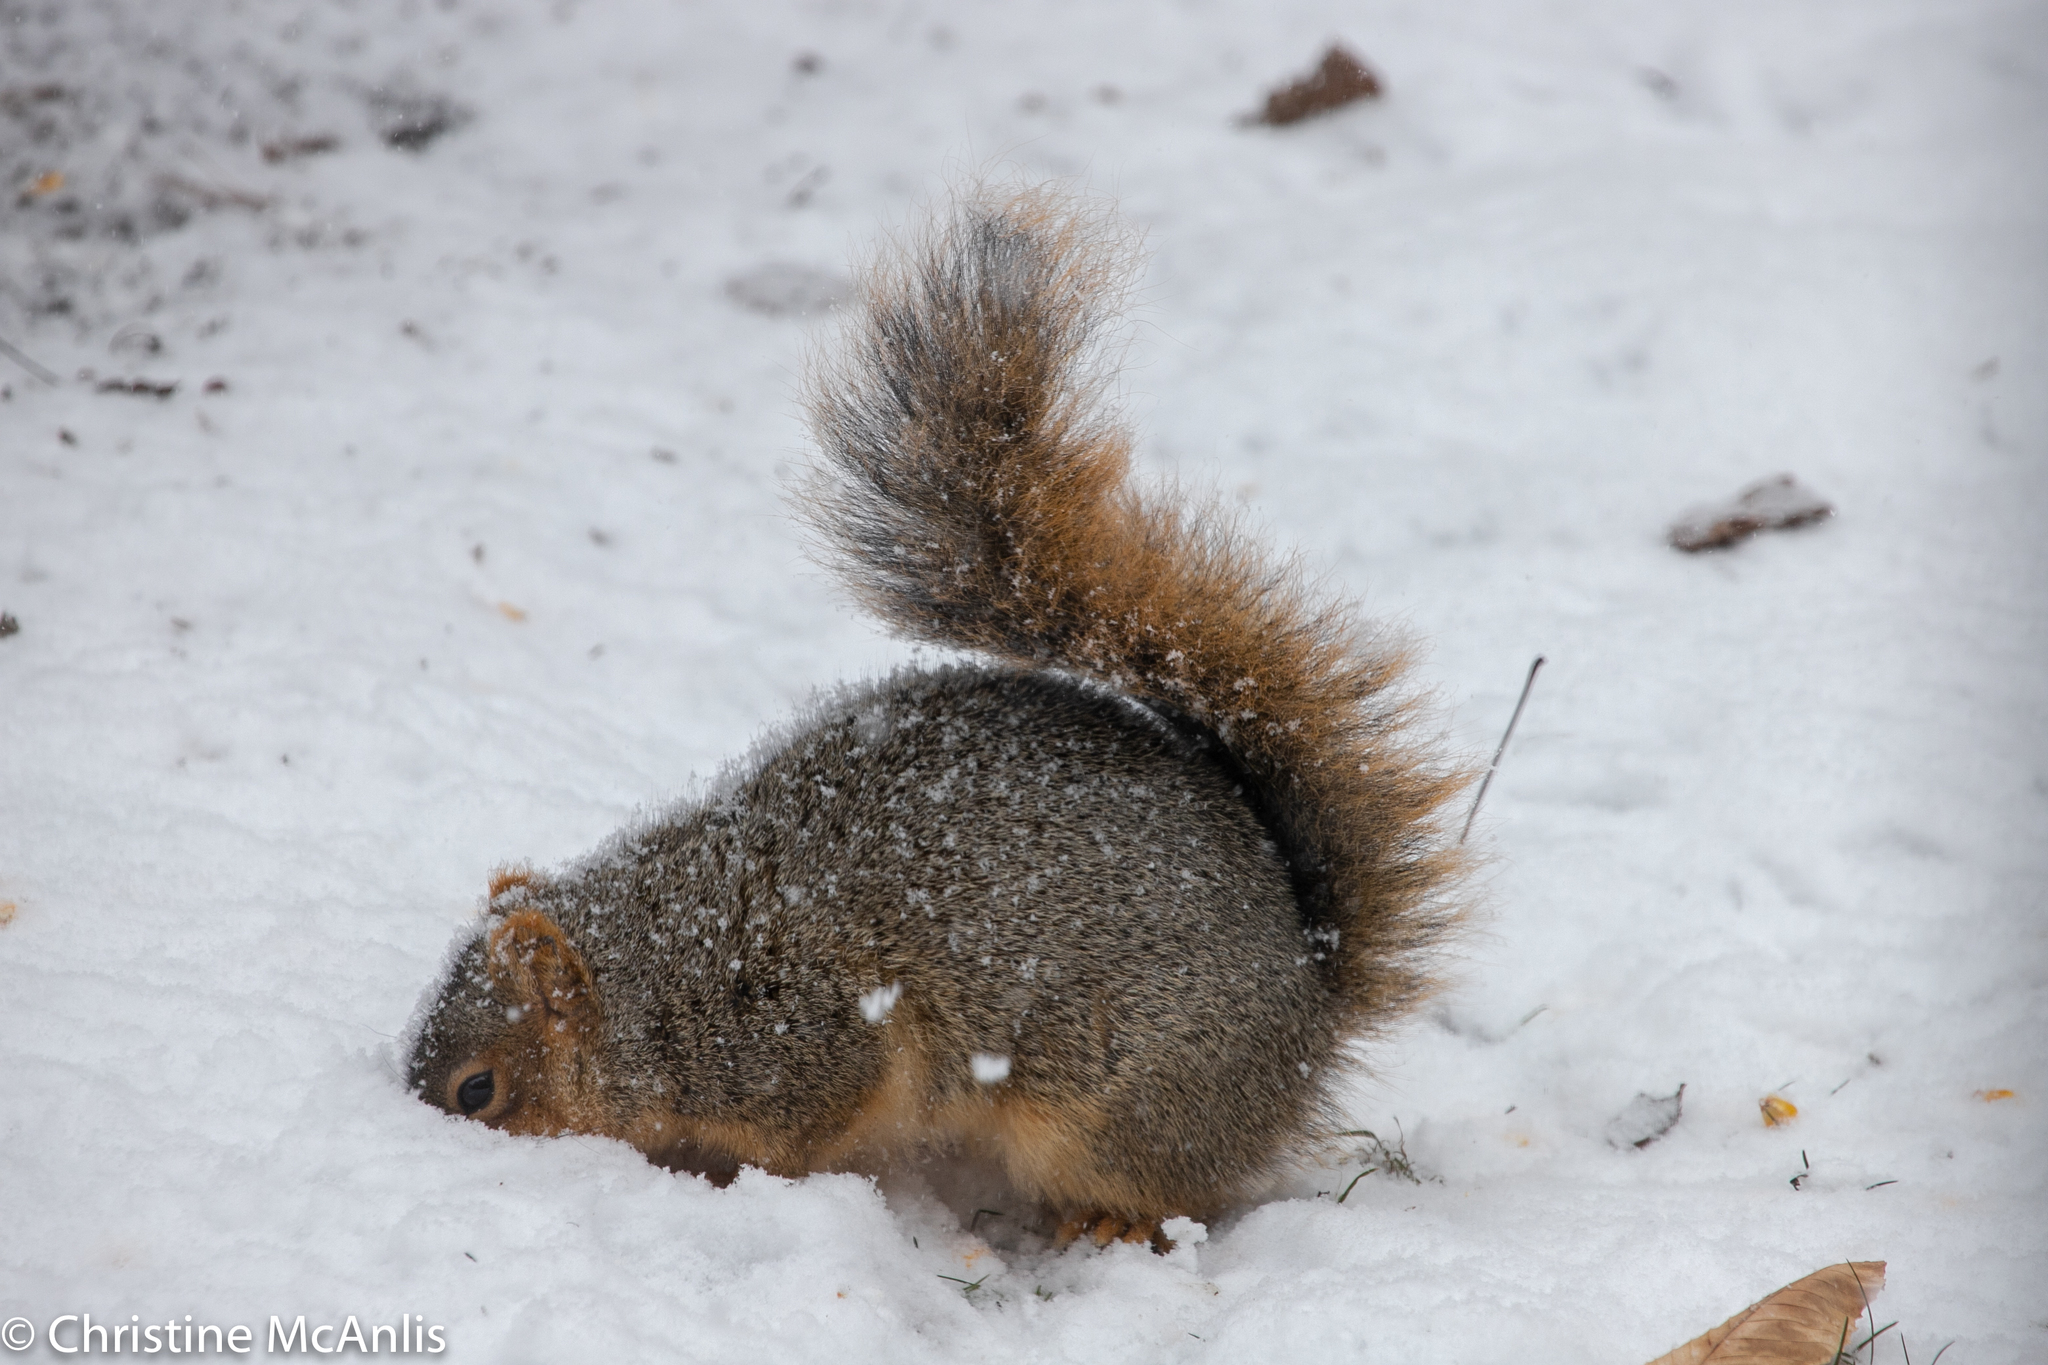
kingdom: Animalia
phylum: Chordata
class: Mammalia
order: Rodentia
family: Sciuridae
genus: Sciurus
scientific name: Sciurus niger
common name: Fox squirrel
